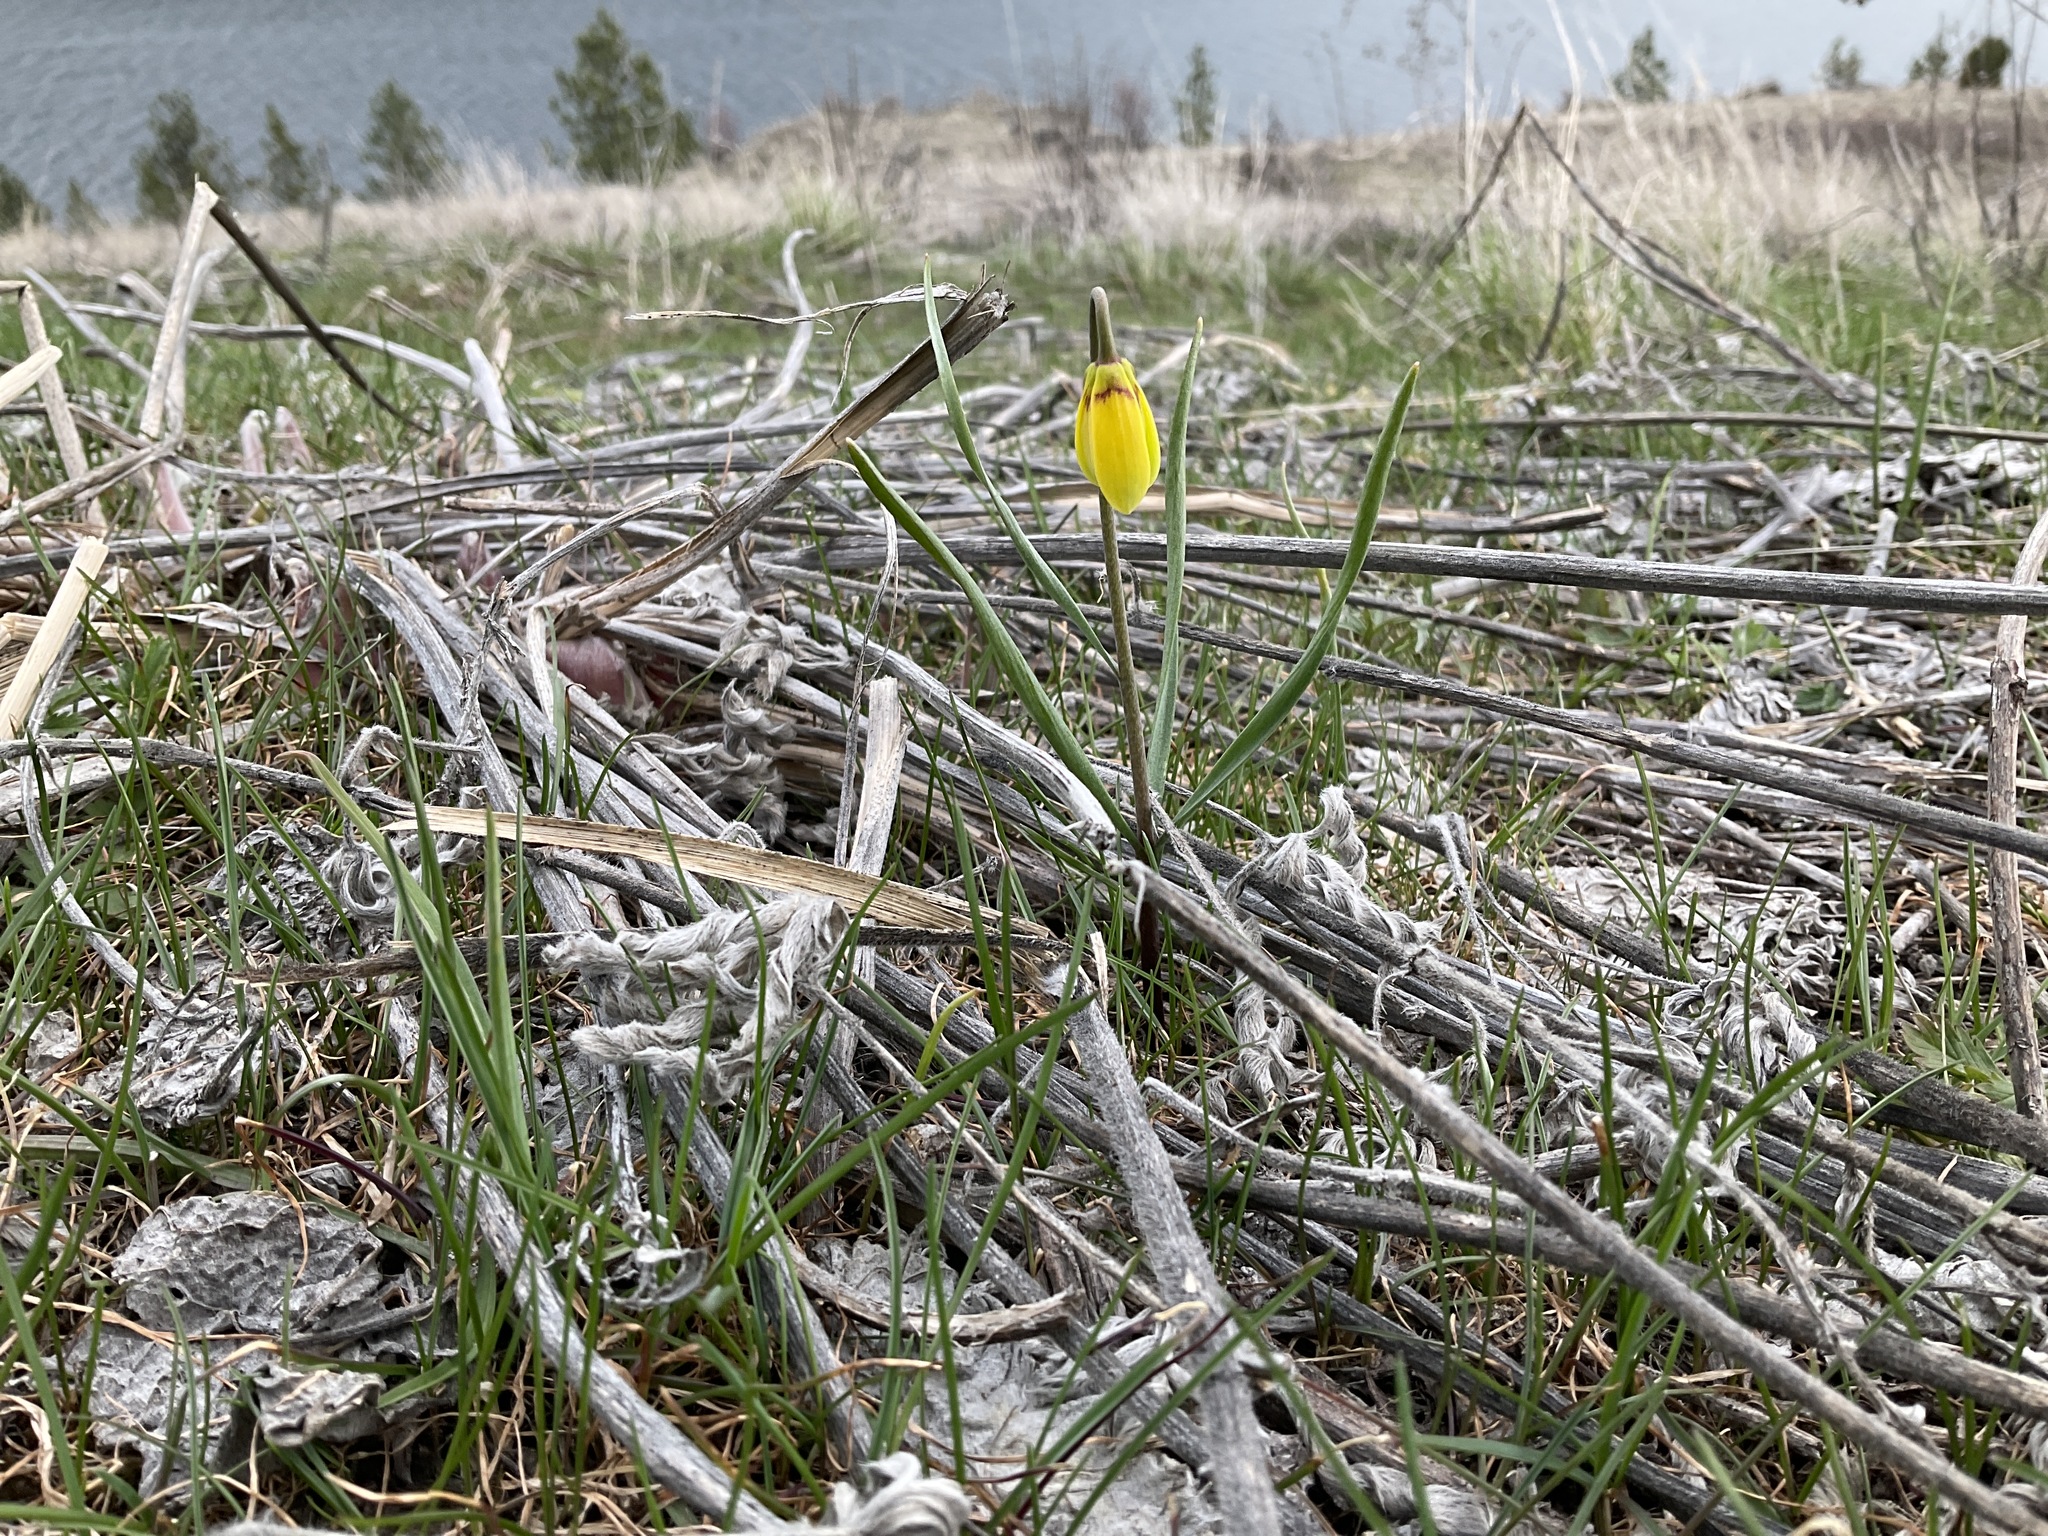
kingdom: Plantae
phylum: Tracheophyta
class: Liliopsida
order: Liliales
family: Liliaceae
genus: Fritillaria
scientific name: Fritillaria pudica
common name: Yellow fritillary
